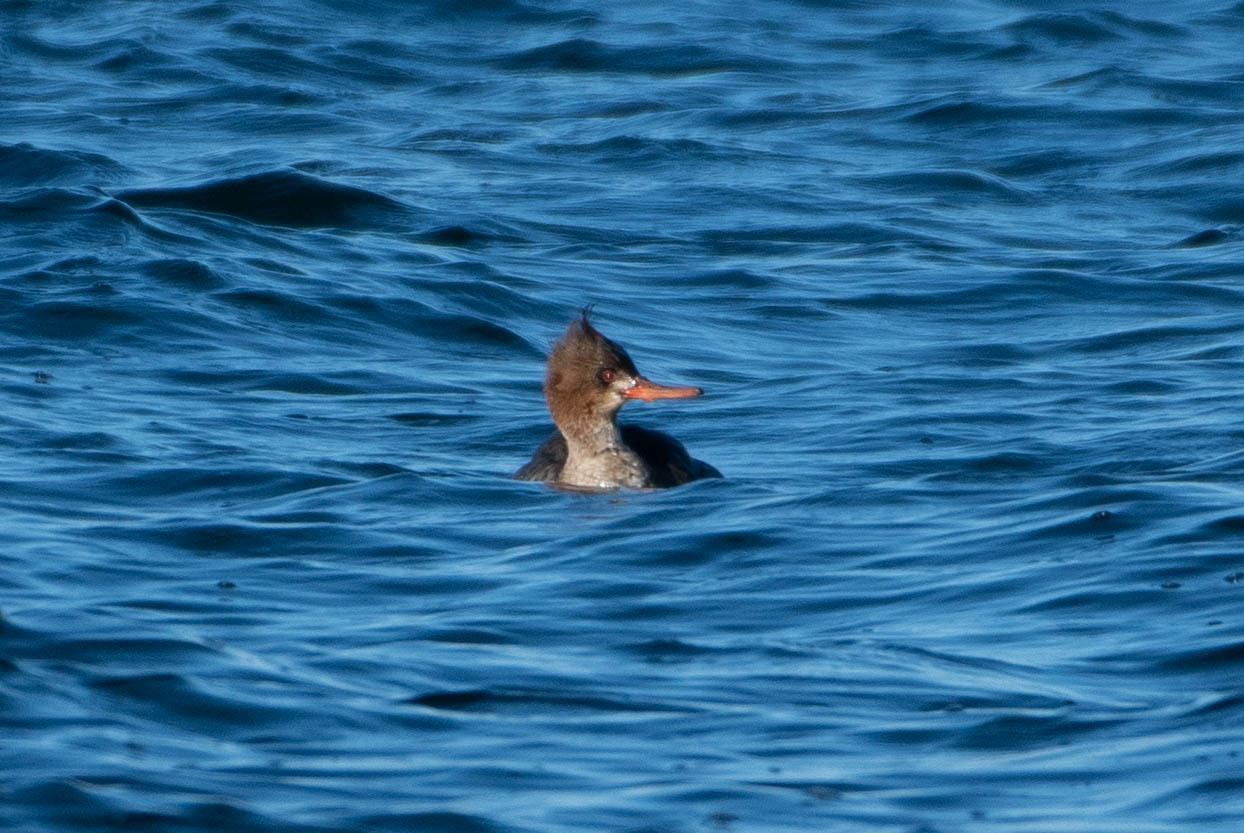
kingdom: Animalia
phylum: Chordata
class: Aves
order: Anseriformes
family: Anatidae
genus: Mergus
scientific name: Mergus serrator
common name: Red-breasted merganser
